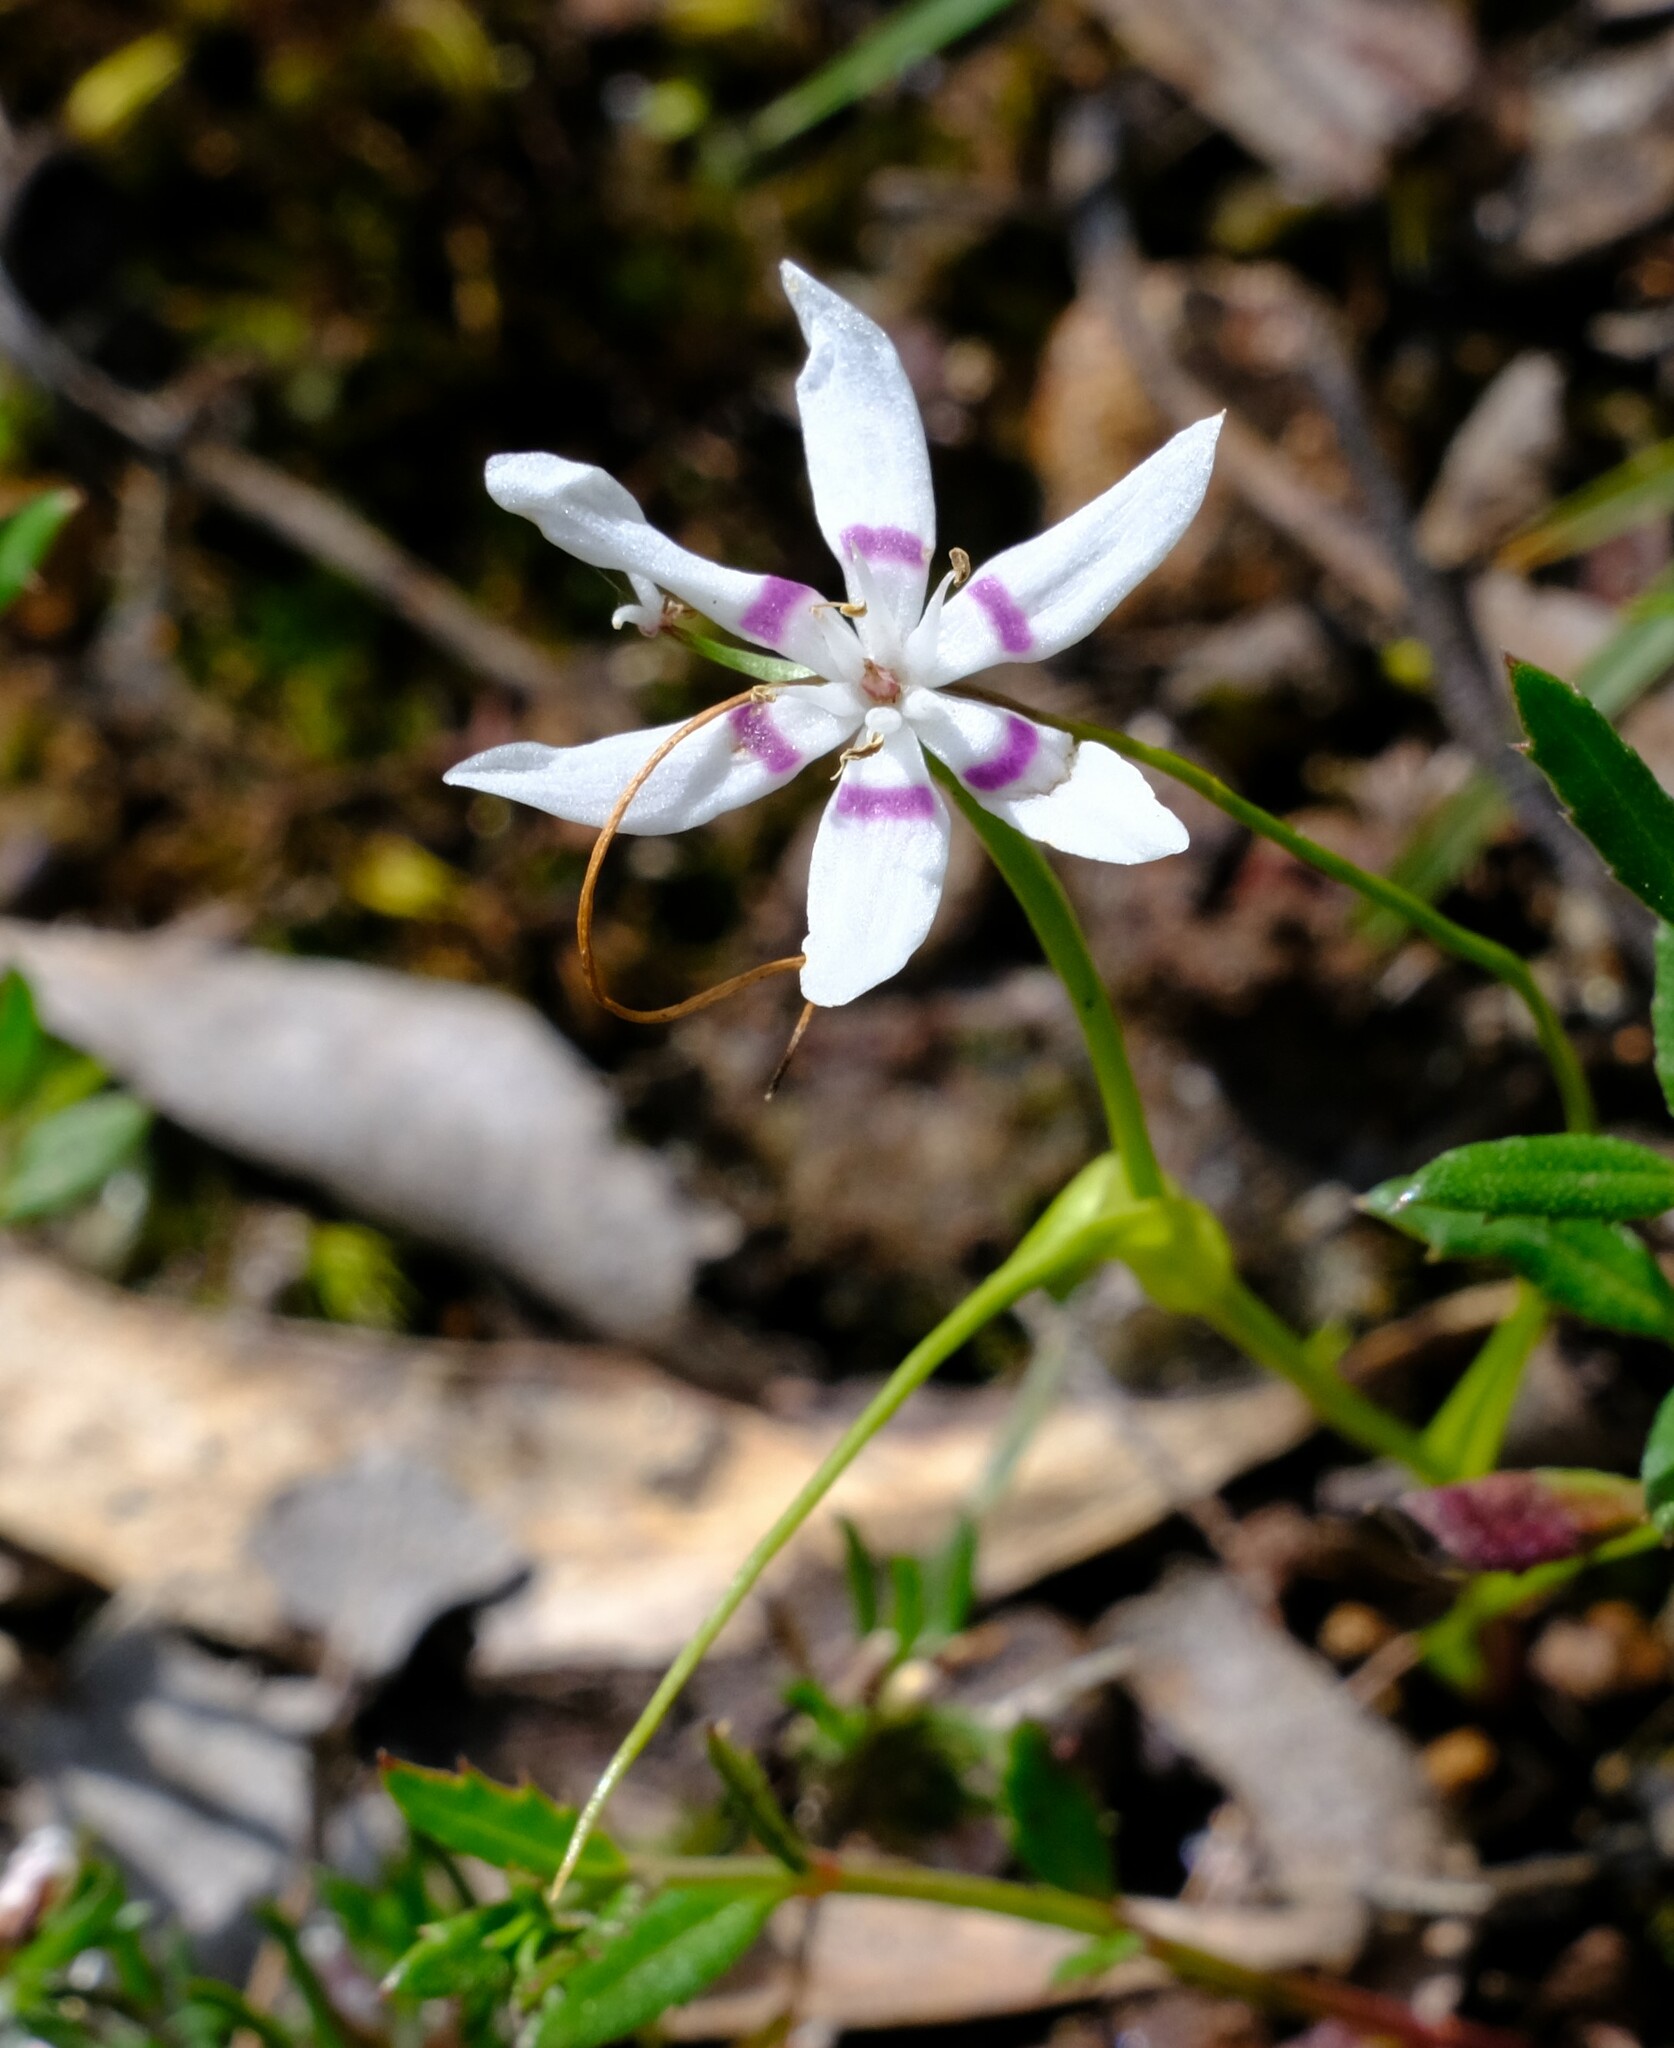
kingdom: Plantae
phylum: Tracheophyta
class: Liliopsida
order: Liliales
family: Colchicaceae
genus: Wurmbea
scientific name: Wurmbea dioica
